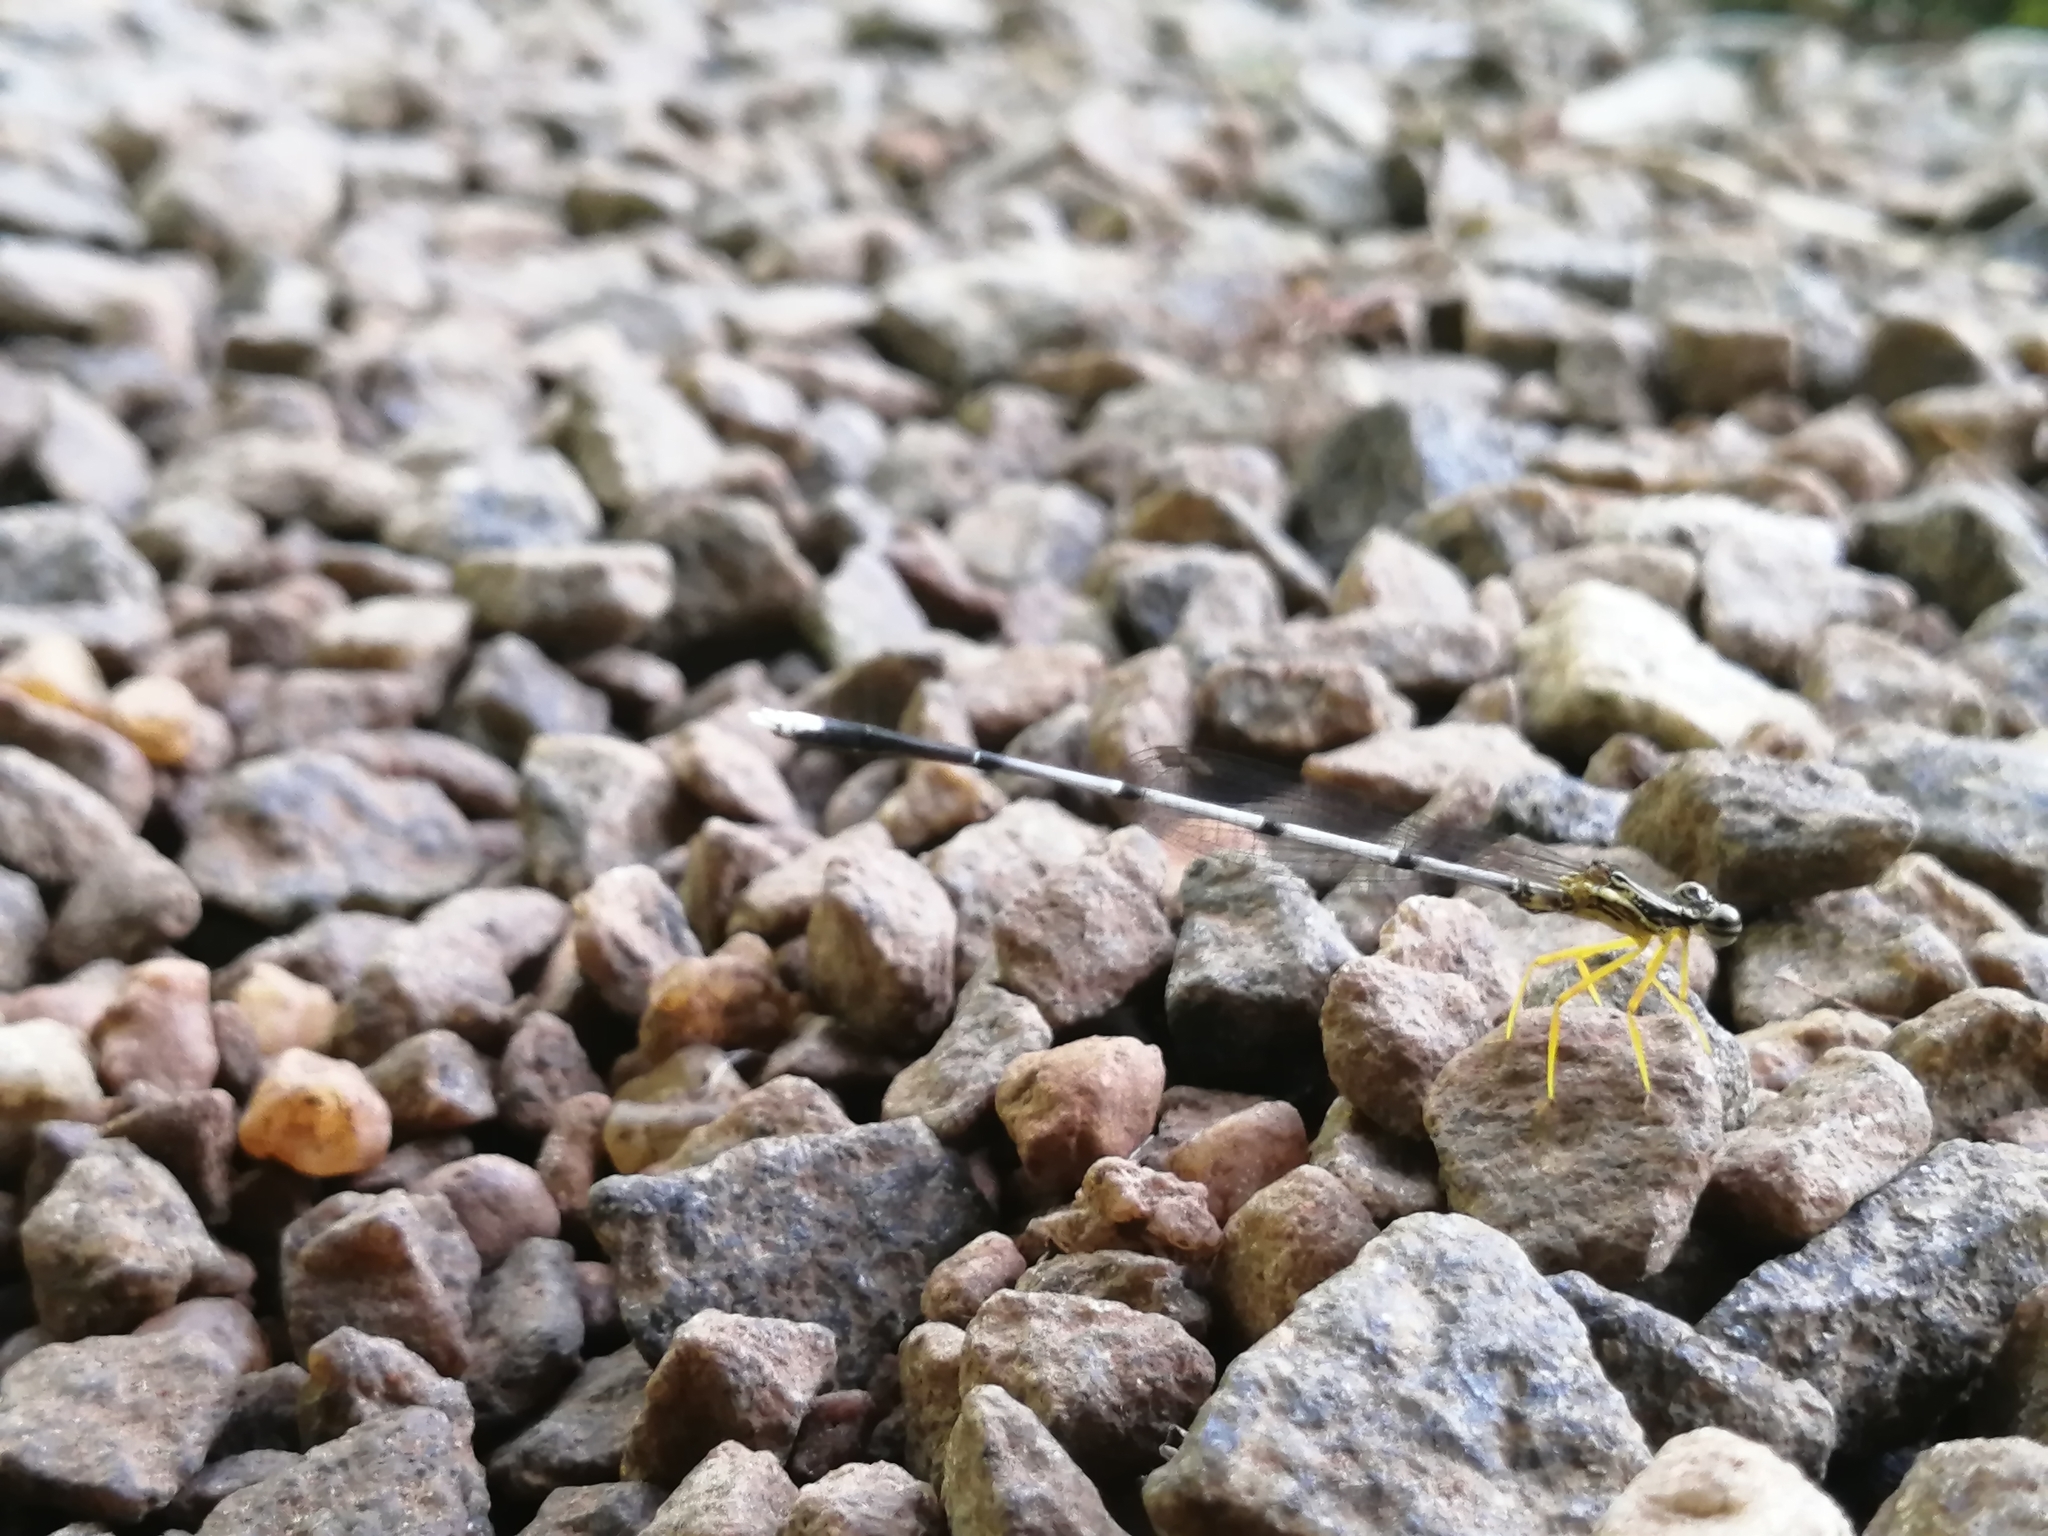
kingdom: Animalia
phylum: Arthropoda
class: Insecta
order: Odonata
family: Platycnemididae
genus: Copera
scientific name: Copera vittata
